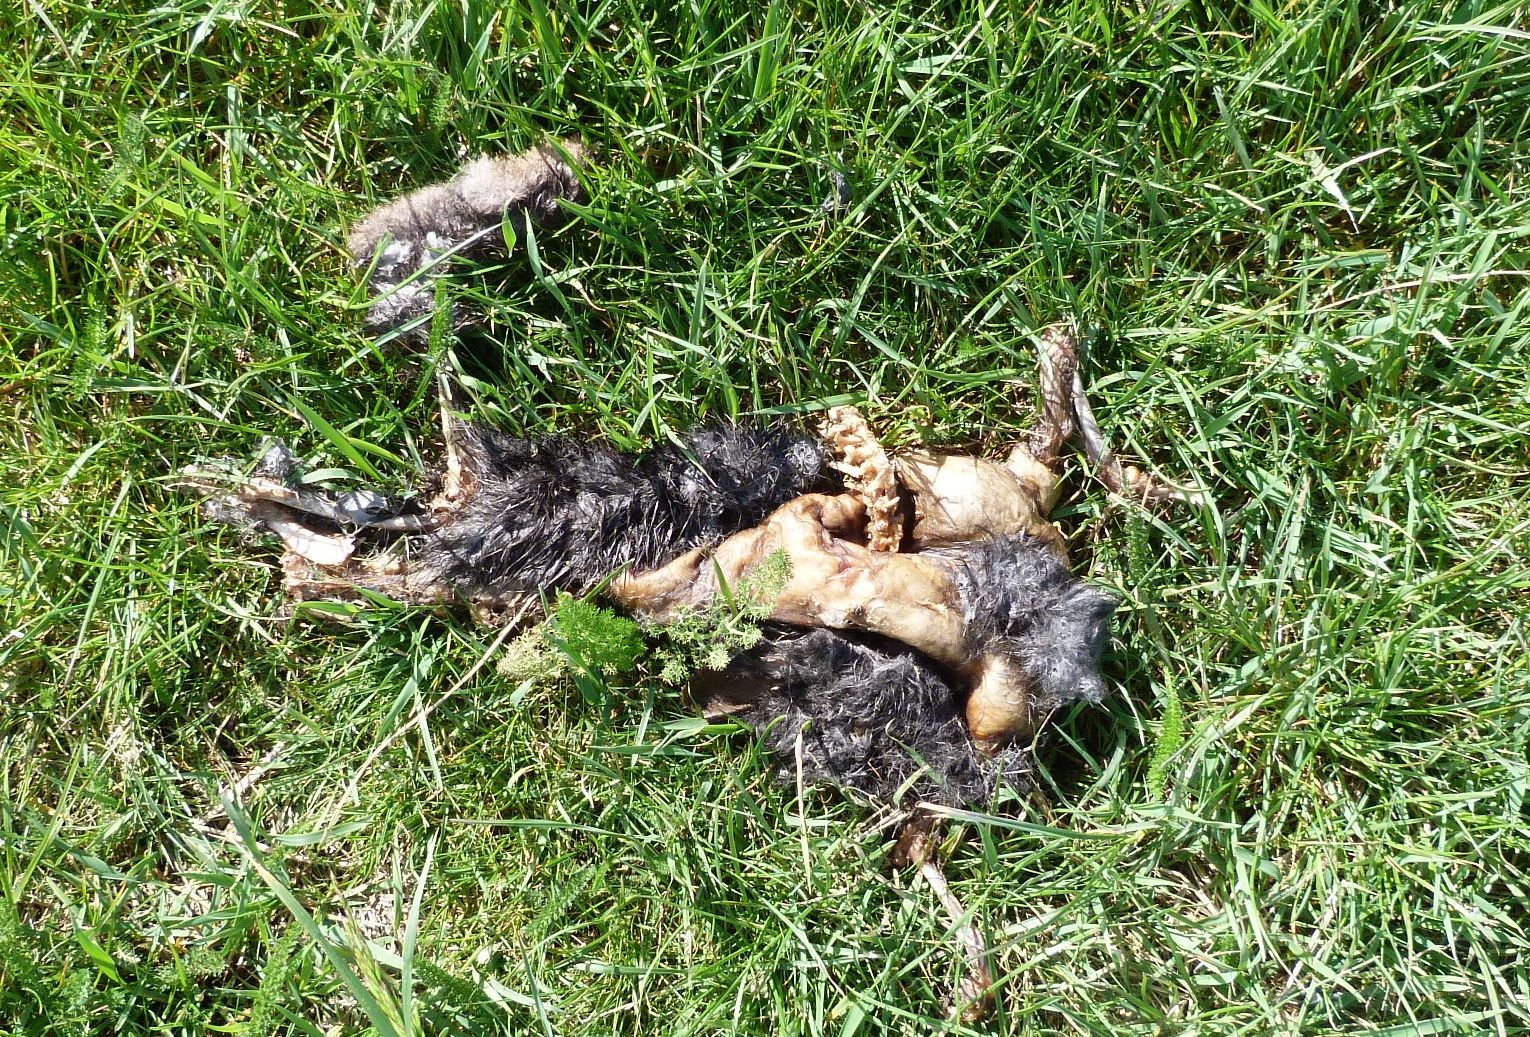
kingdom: Animalia
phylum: Chordata
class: Mammalia
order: Diprotodontia
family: Phalangeridae
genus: Trichosurus
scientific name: Trichosurus vulpecula
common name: Common brushtail
